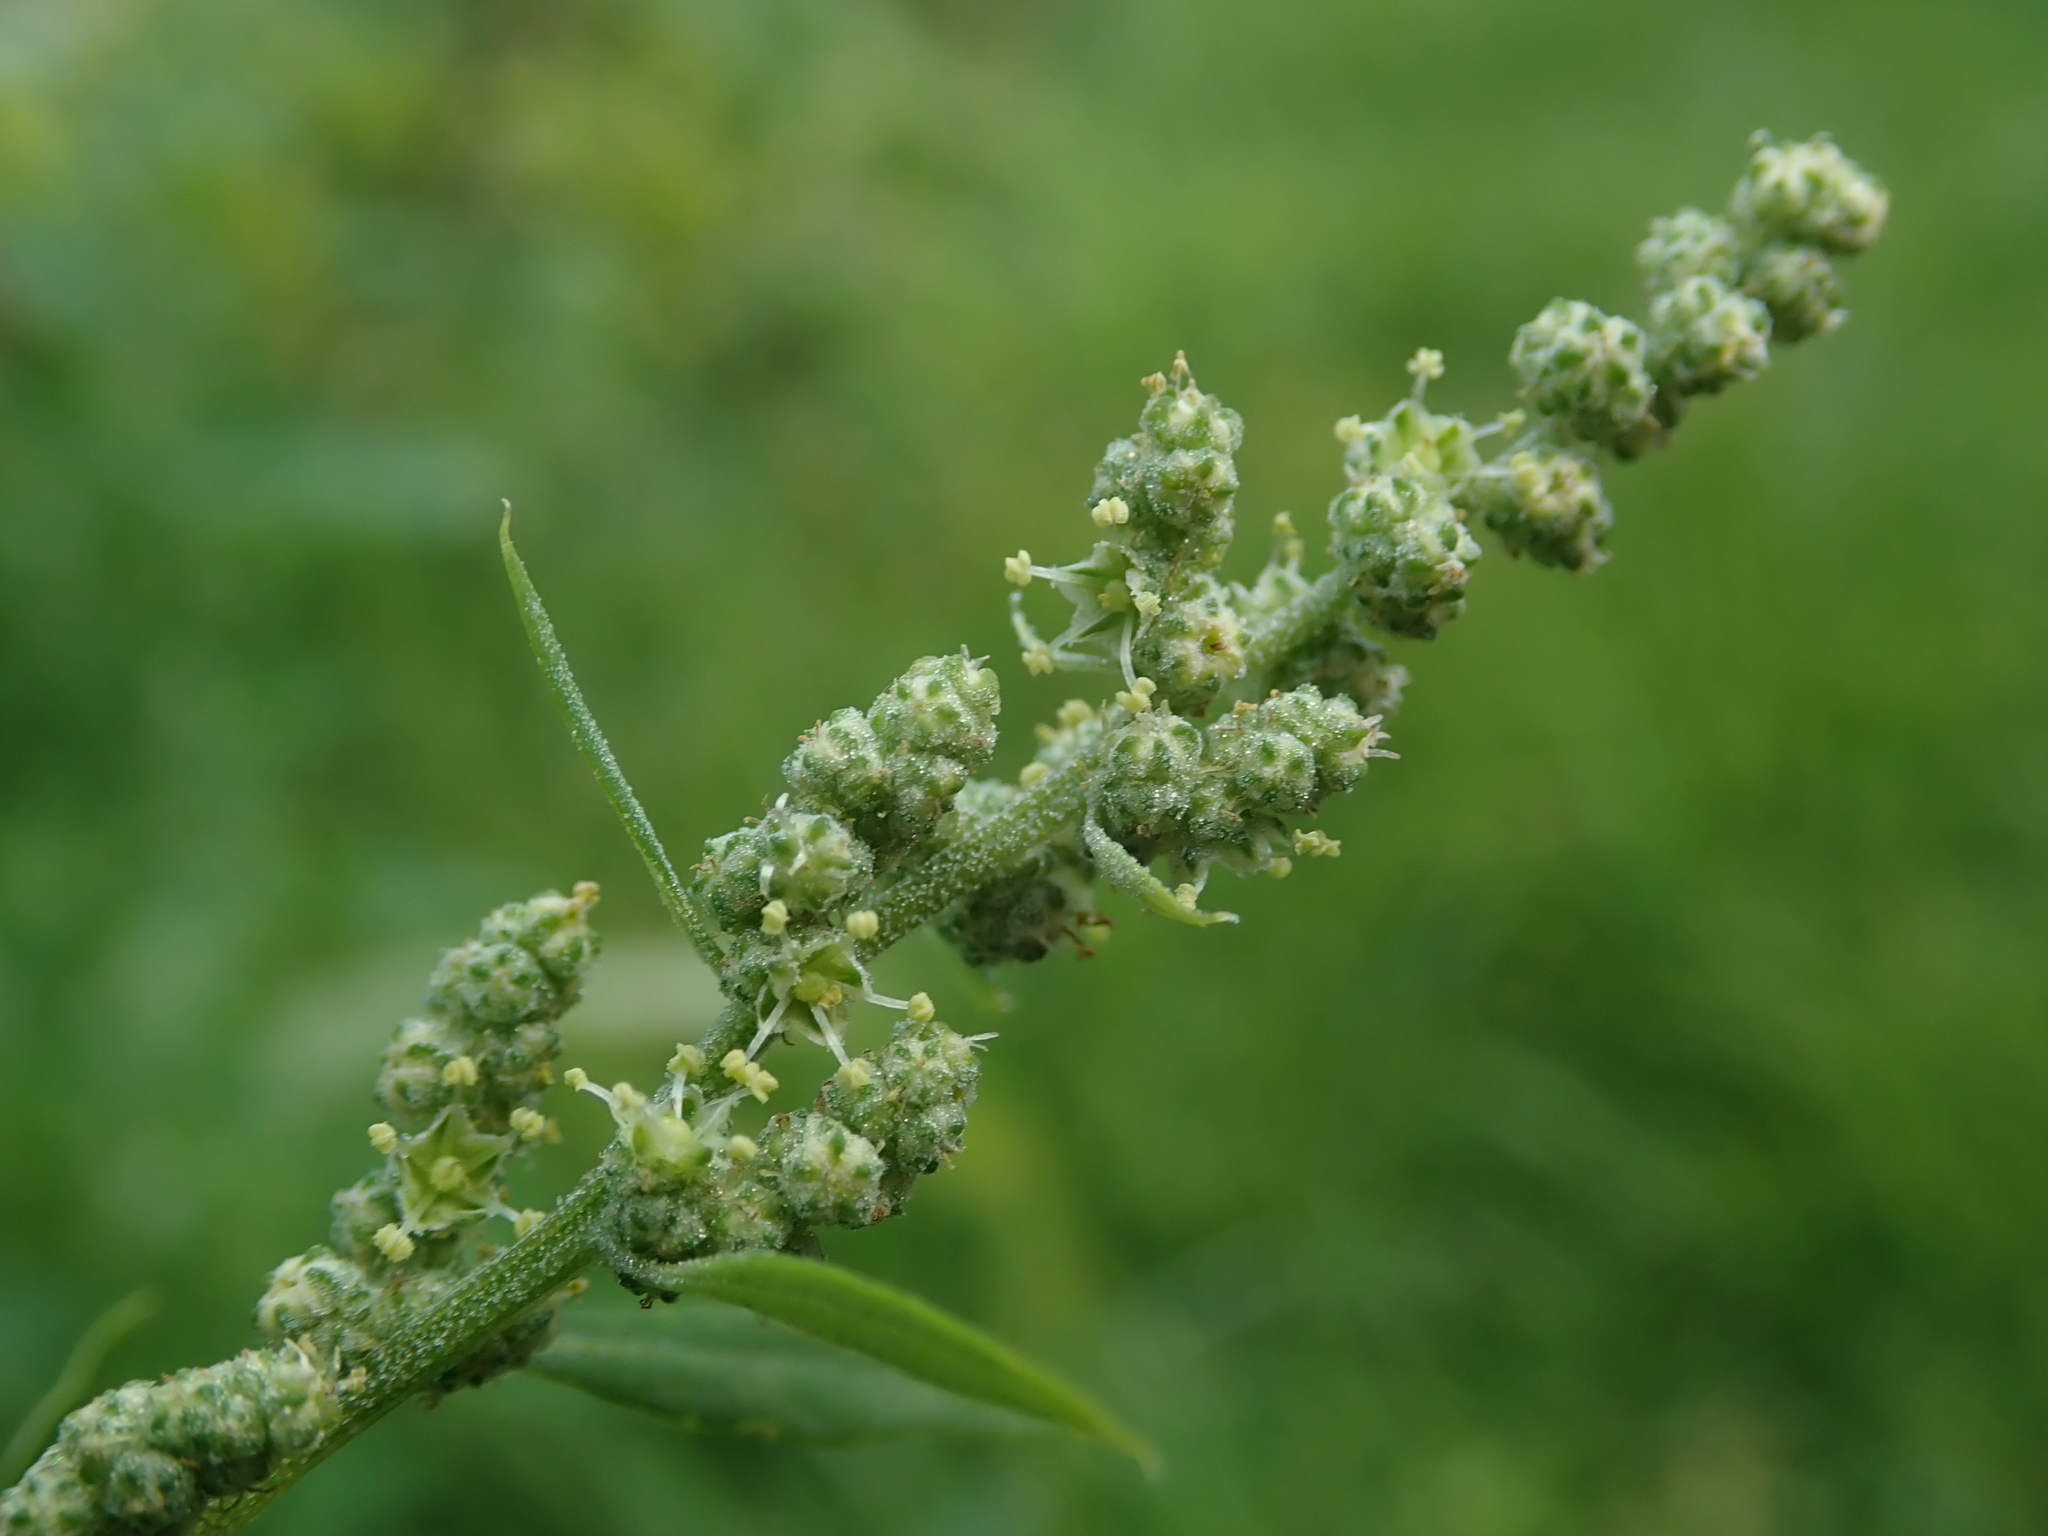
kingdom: Plantae
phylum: Tracheophyta
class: Magnoliopsida
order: Caryophyllales
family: Amaranthaceae
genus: Chenopodium
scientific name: Chenopodium album
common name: Fat-hen
